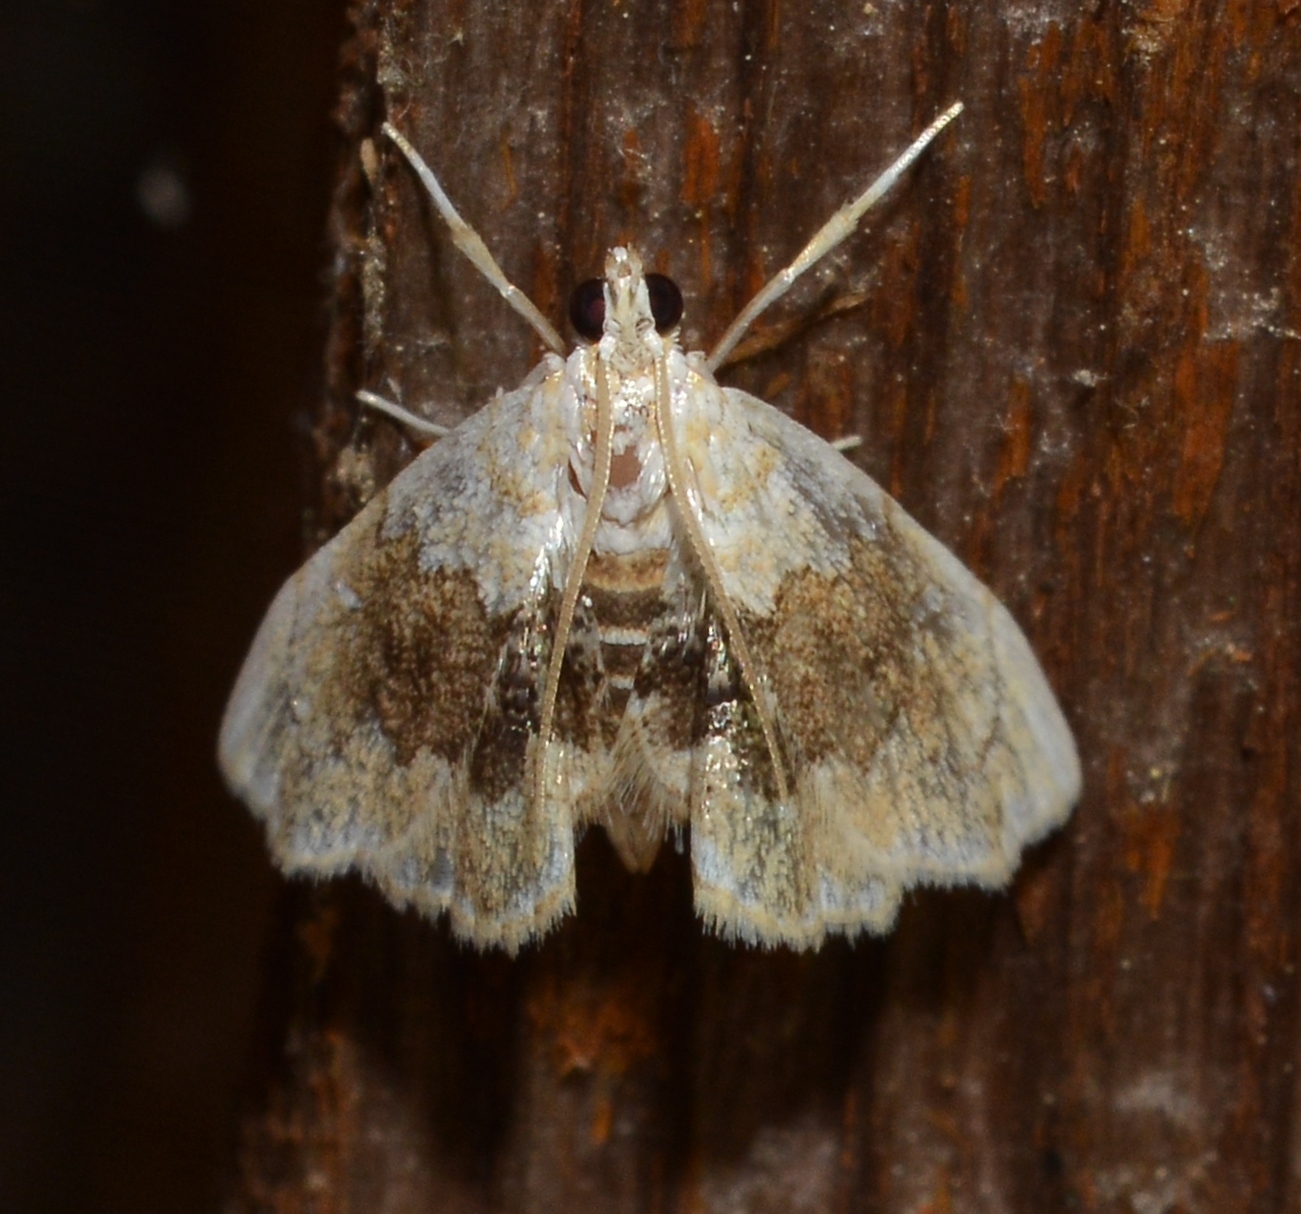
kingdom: Animalia
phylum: Arthropoda
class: Insecta
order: Lepidoptera
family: Crambidae
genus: Lipocosma
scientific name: Lipocosma sicalis
